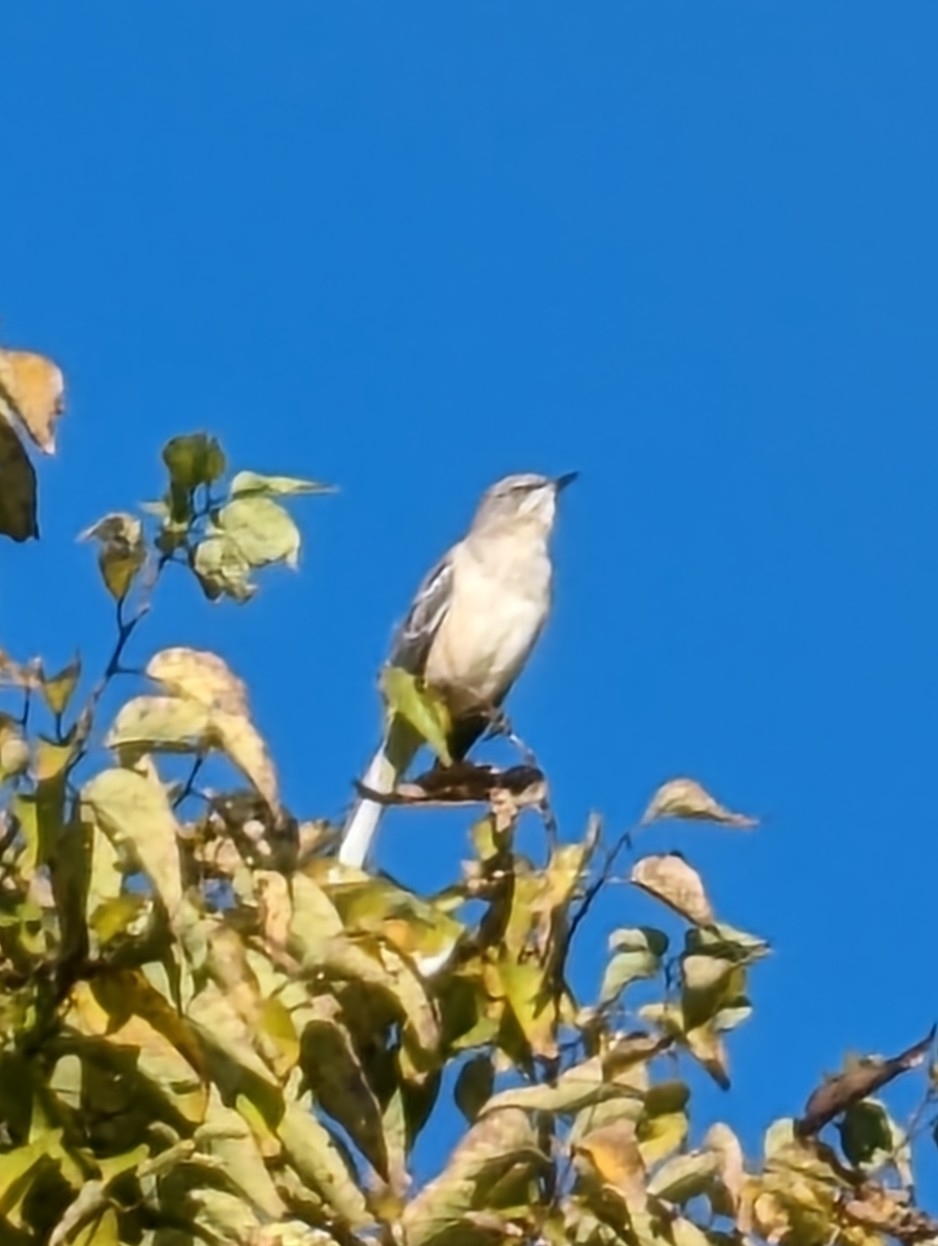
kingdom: Animalia
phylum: Chordata
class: Aves
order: Passeriformes
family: Mimidae
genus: Mimus
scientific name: Mimus polyglottos
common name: Northern mockingbird
